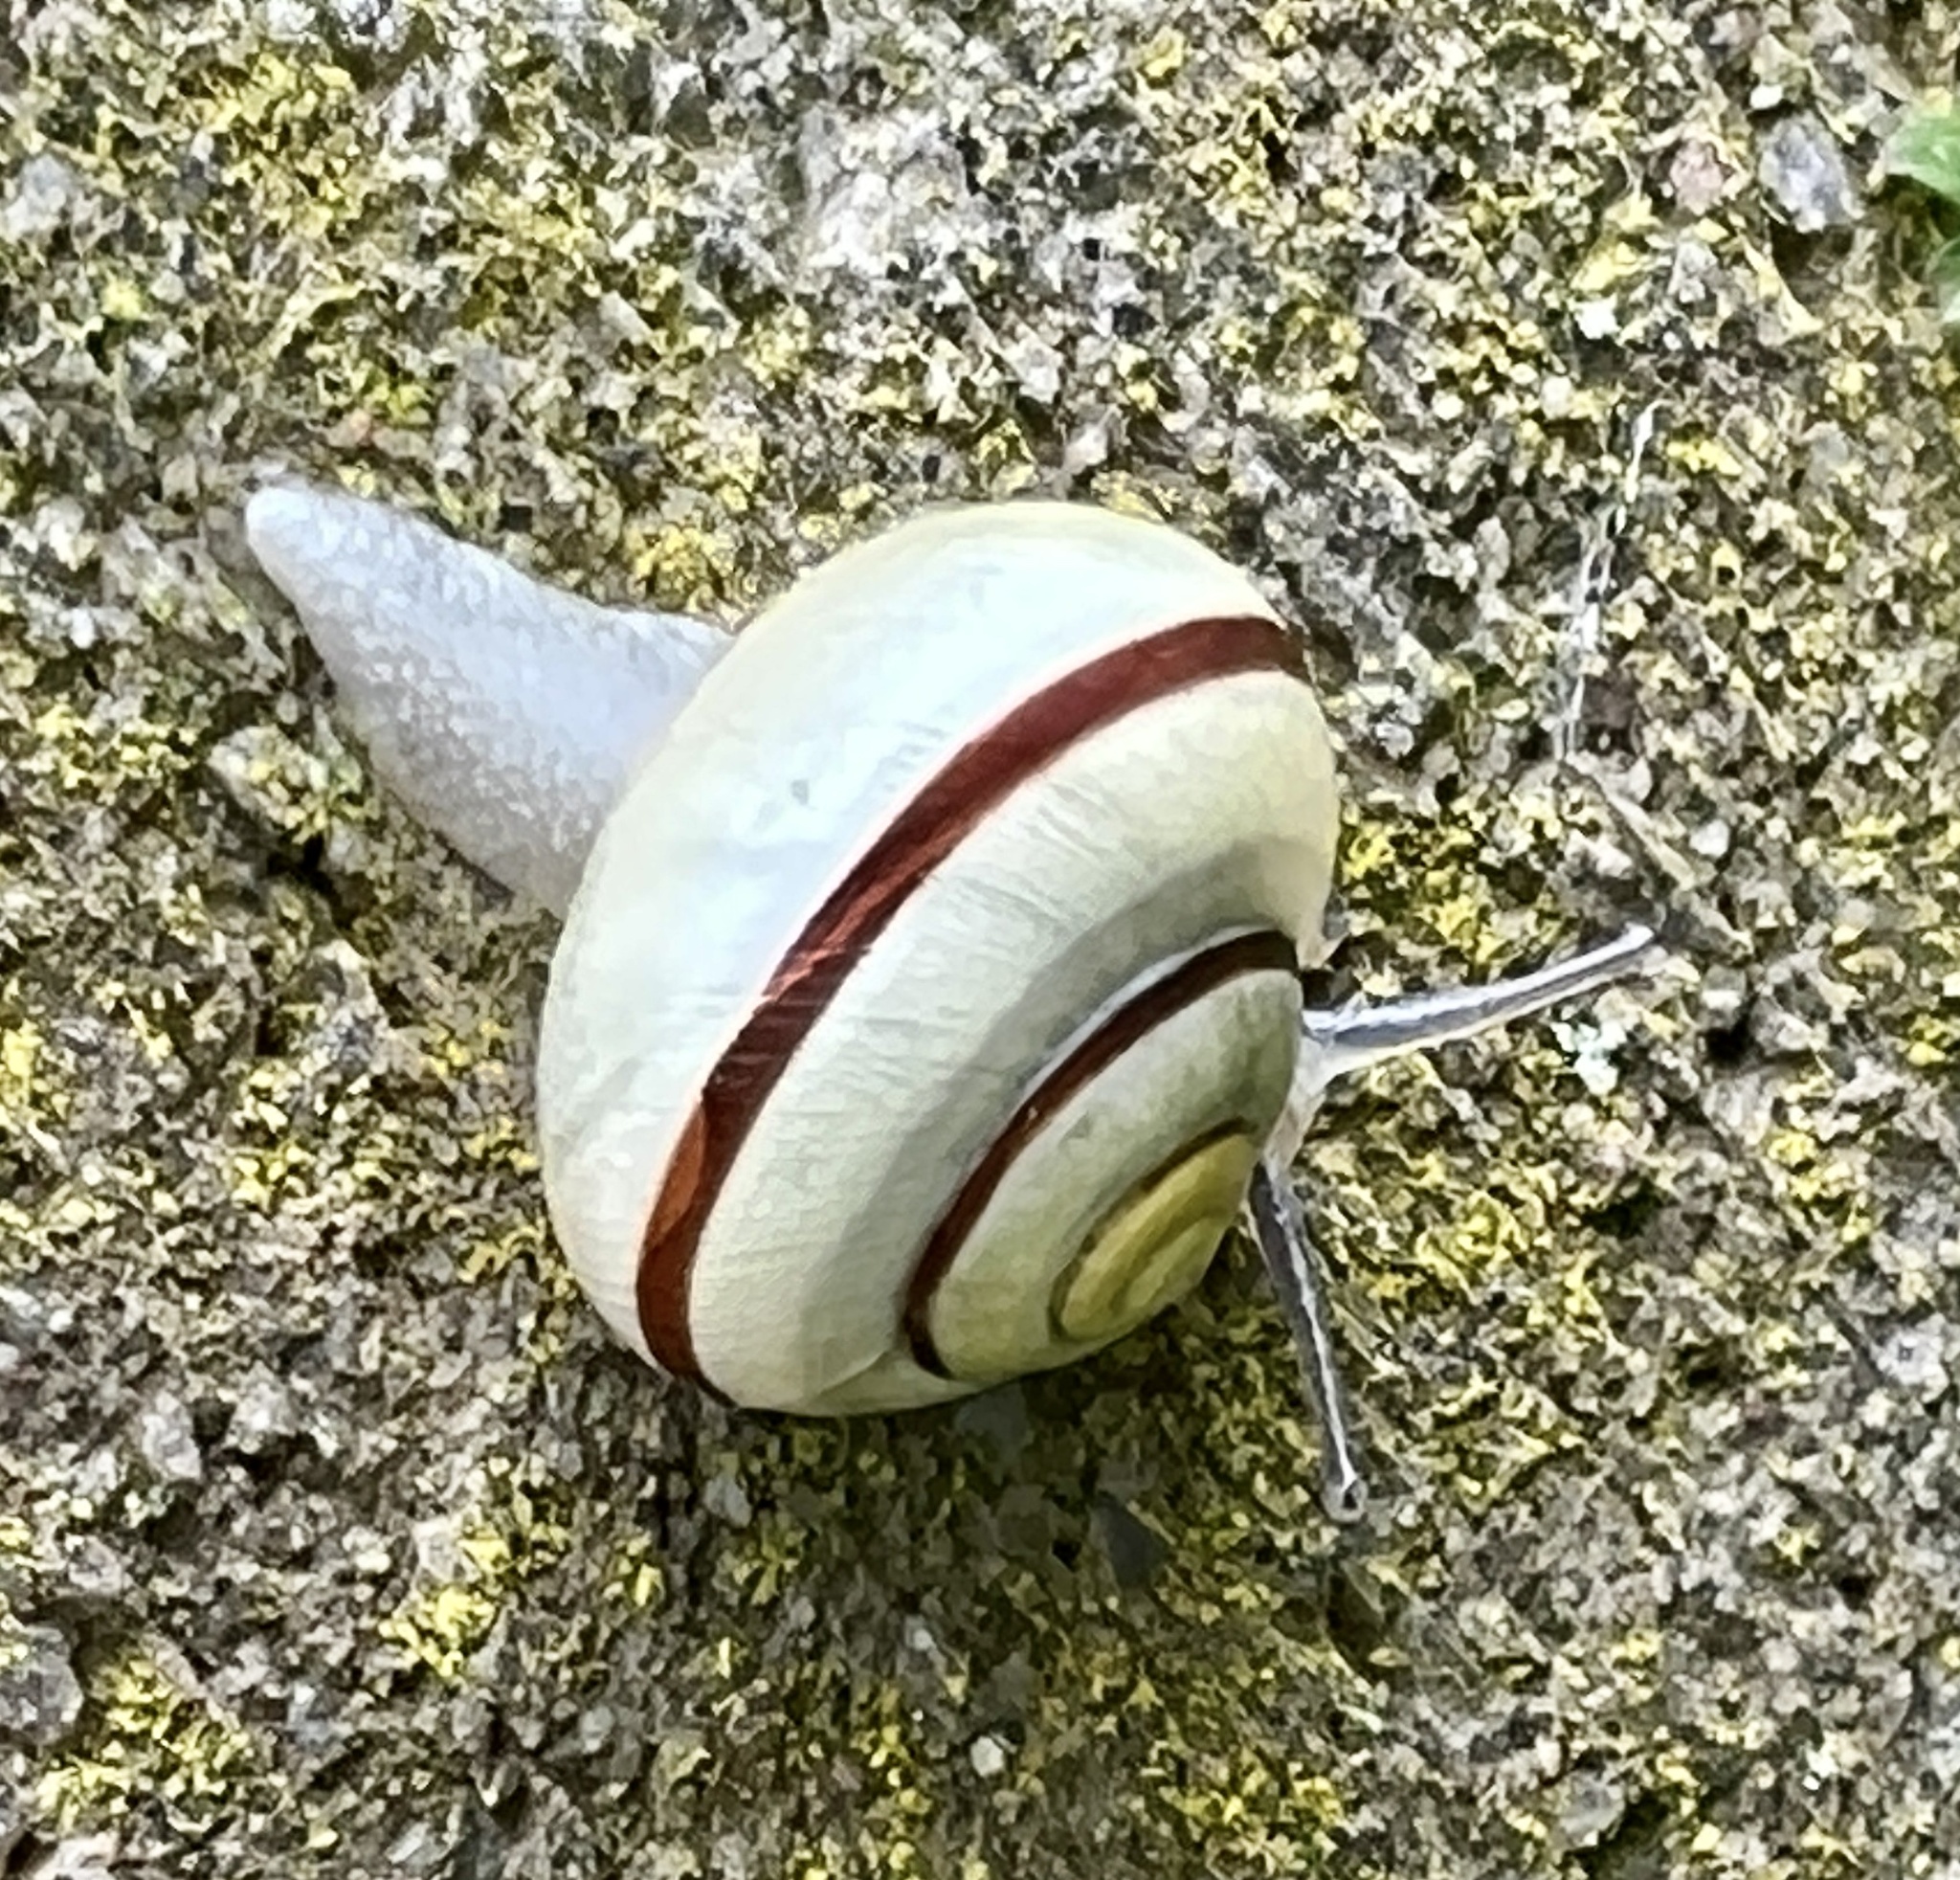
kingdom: Animalia
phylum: Mollusca
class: Gastropoda
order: Stylommatophora
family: Helicidae
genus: Cepaea
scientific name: Cepaea nemoralis
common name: Grovesnail
